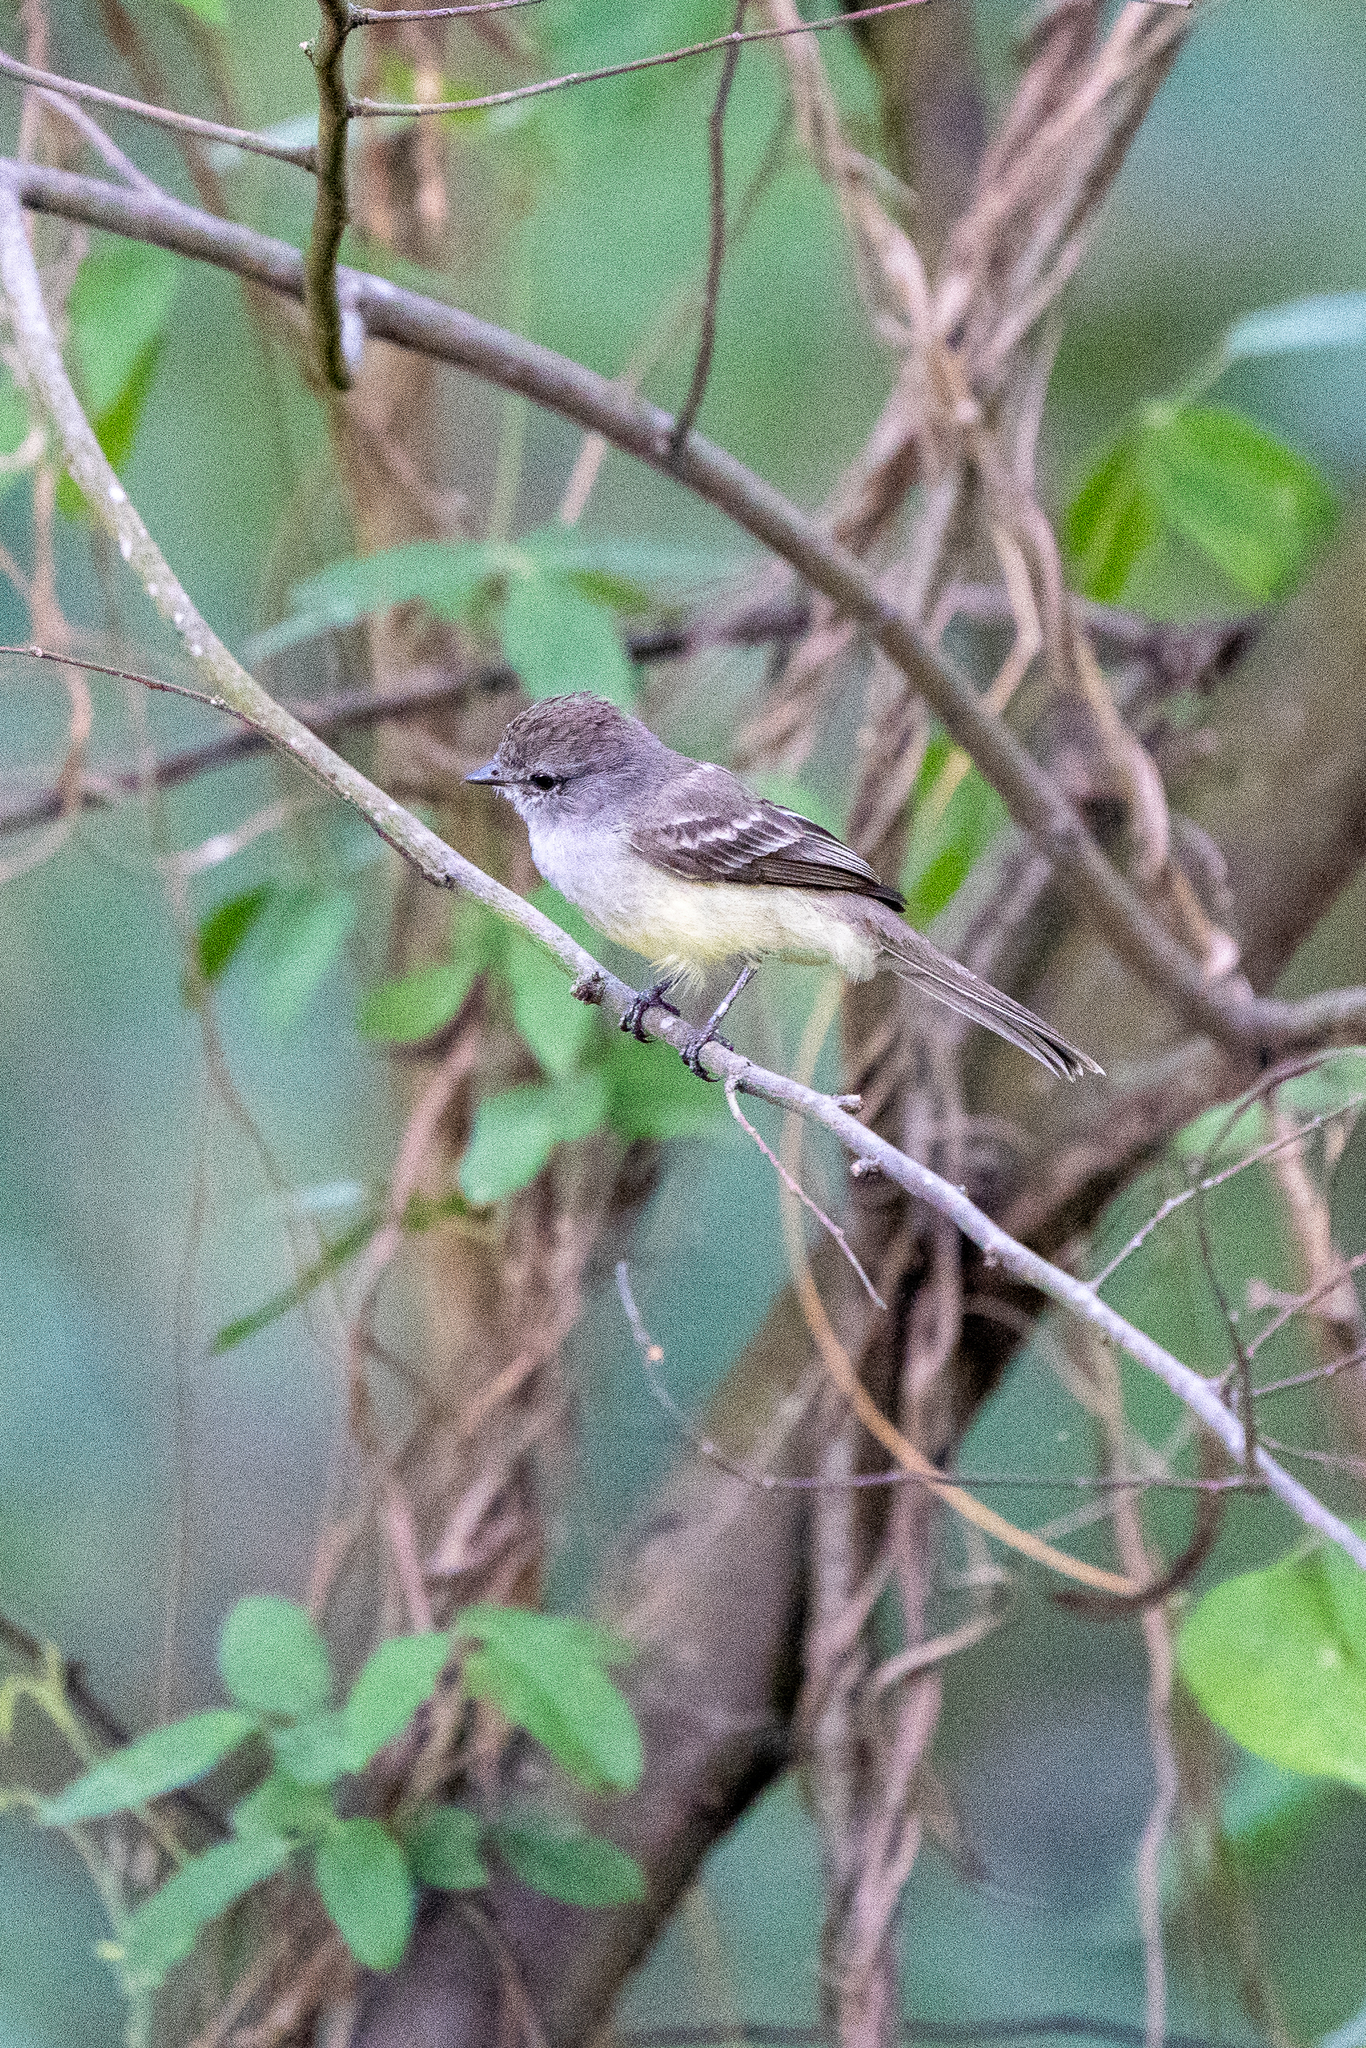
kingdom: Animalia
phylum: Chordata
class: Aves
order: Passeriformes
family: Tyrannidae
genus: Sublegatus
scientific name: Sublegatus arenarum
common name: Northern scrub-flycatcher
